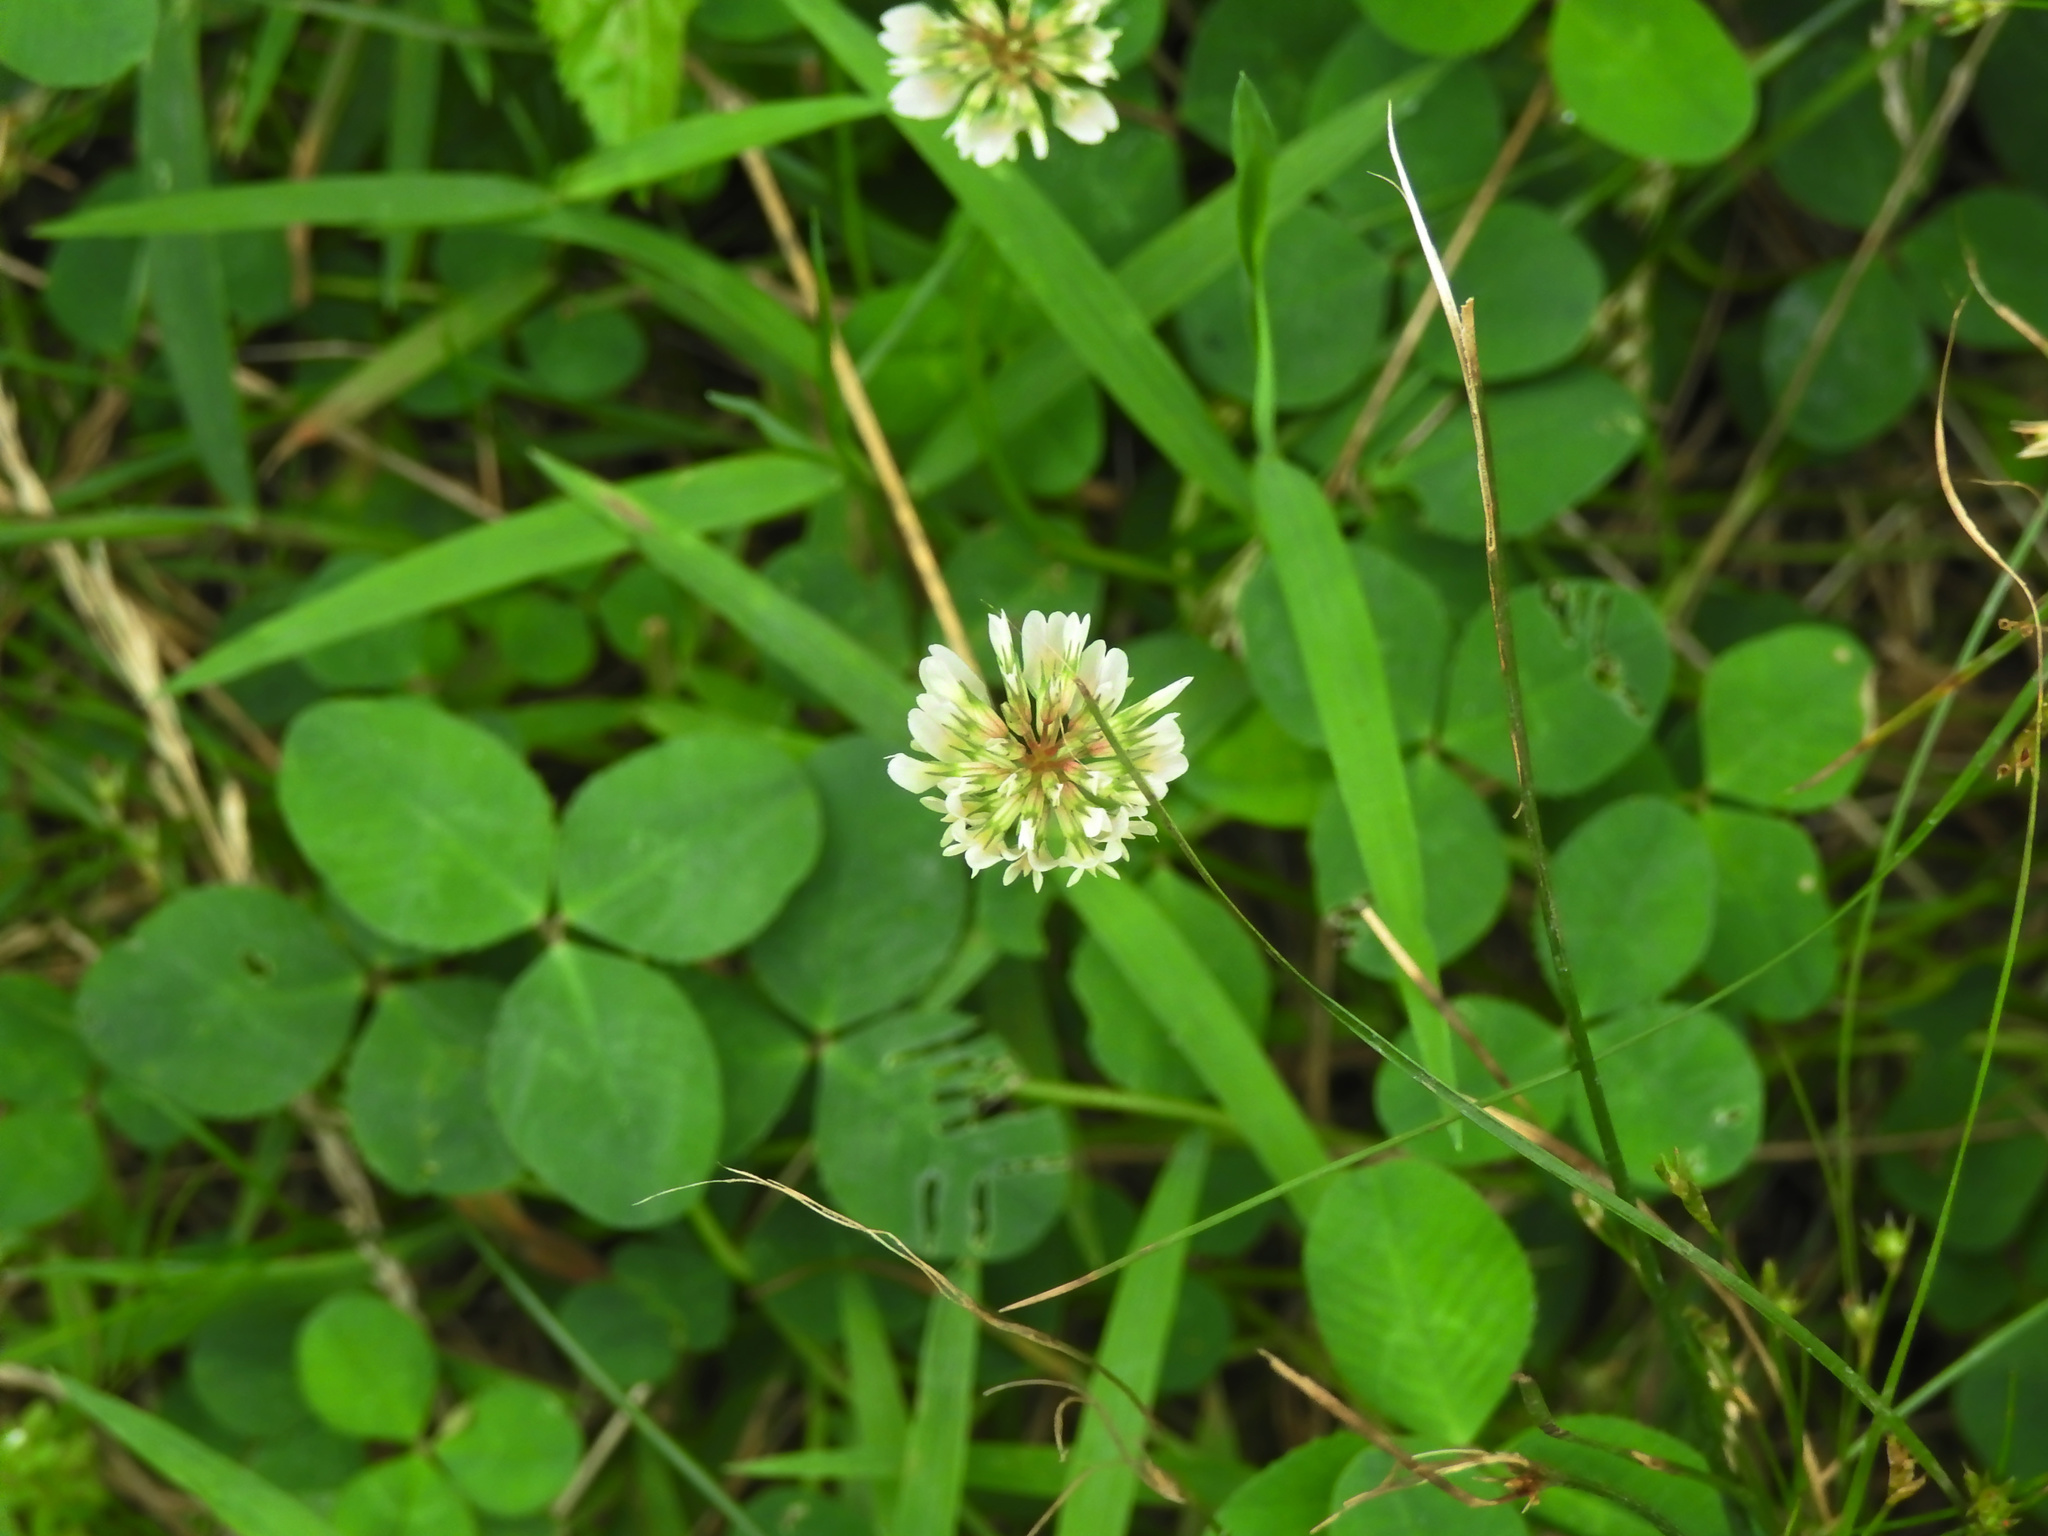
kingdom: Plantae
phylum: Tracheophyta
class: Magnoliopsida
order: Fabales
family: Fabaceae
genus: Trifolium
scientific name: Trifolium repens
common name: White clover
